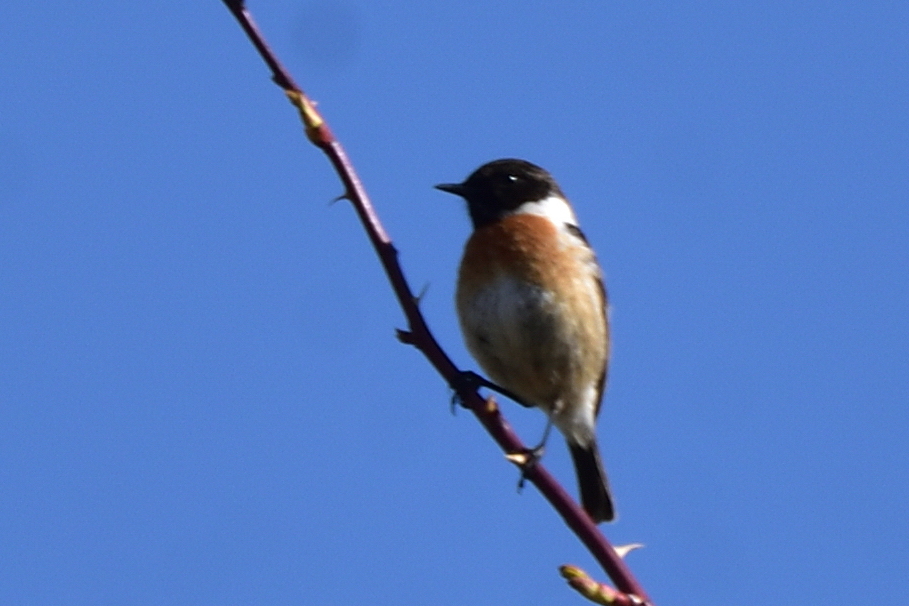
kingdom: Animalia
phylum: Chordata
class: Aves
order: Passeriformes
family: Muscicapidae
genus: Saxicola
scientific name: Saxicola rubicola
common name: European stonechat
